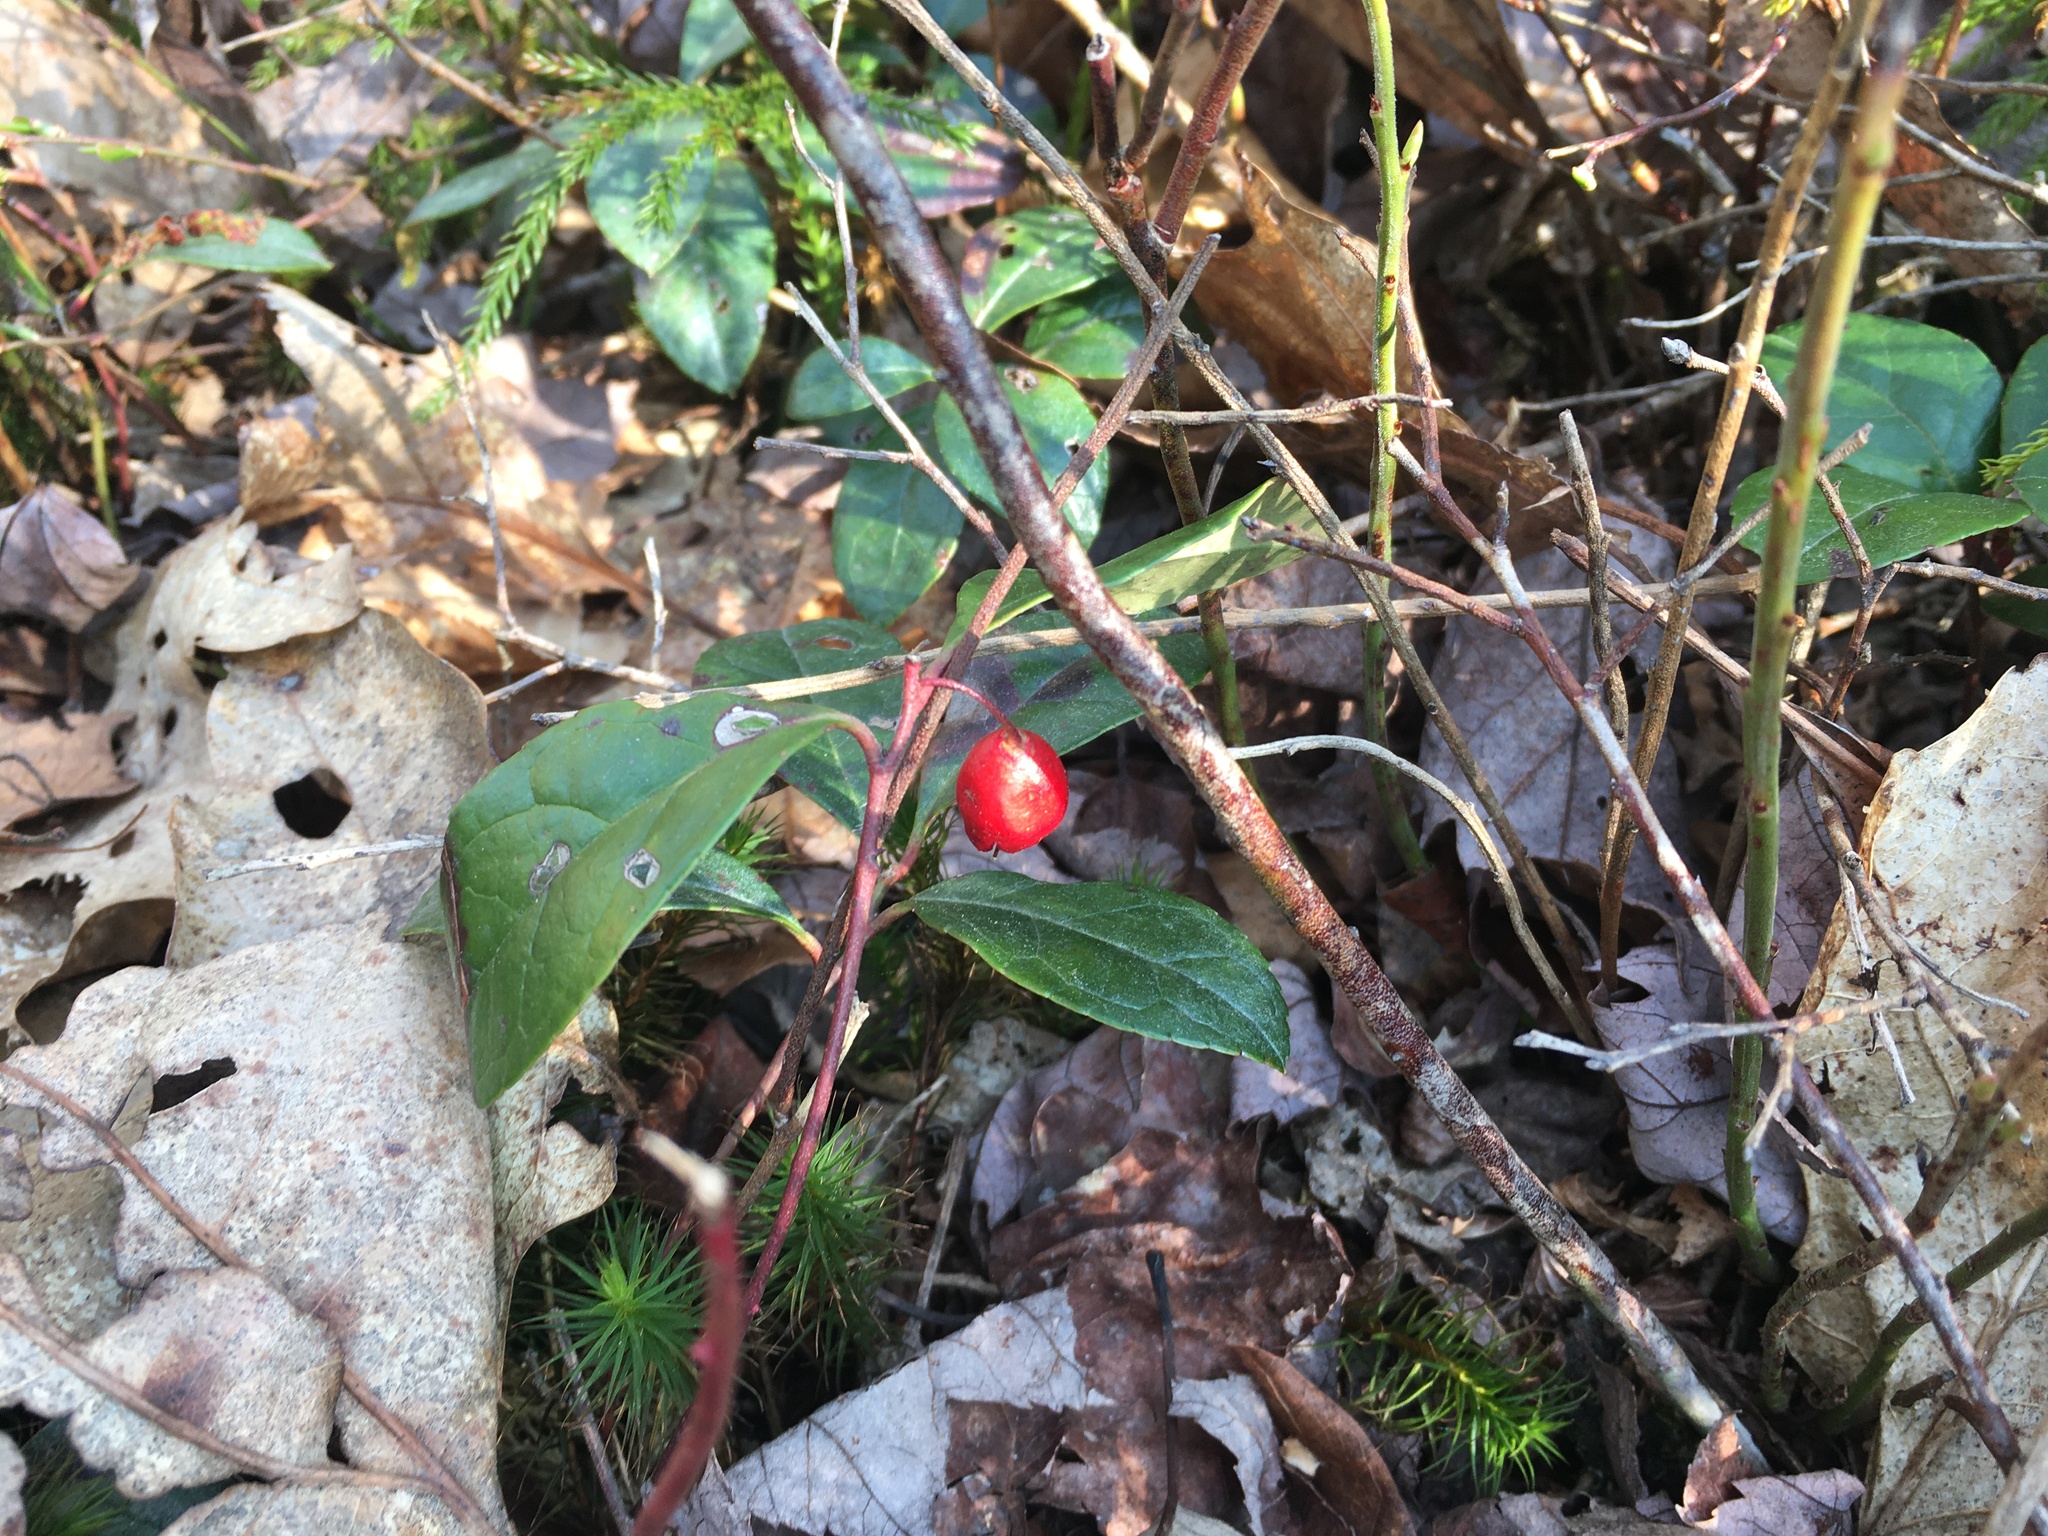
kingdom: Plantae
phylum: Tracheophyta
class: Magnoliopsida
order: Ericales
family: Ericaceae
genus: Gaultheria
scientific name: Gaultheria procumbens
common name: Checkerberry
